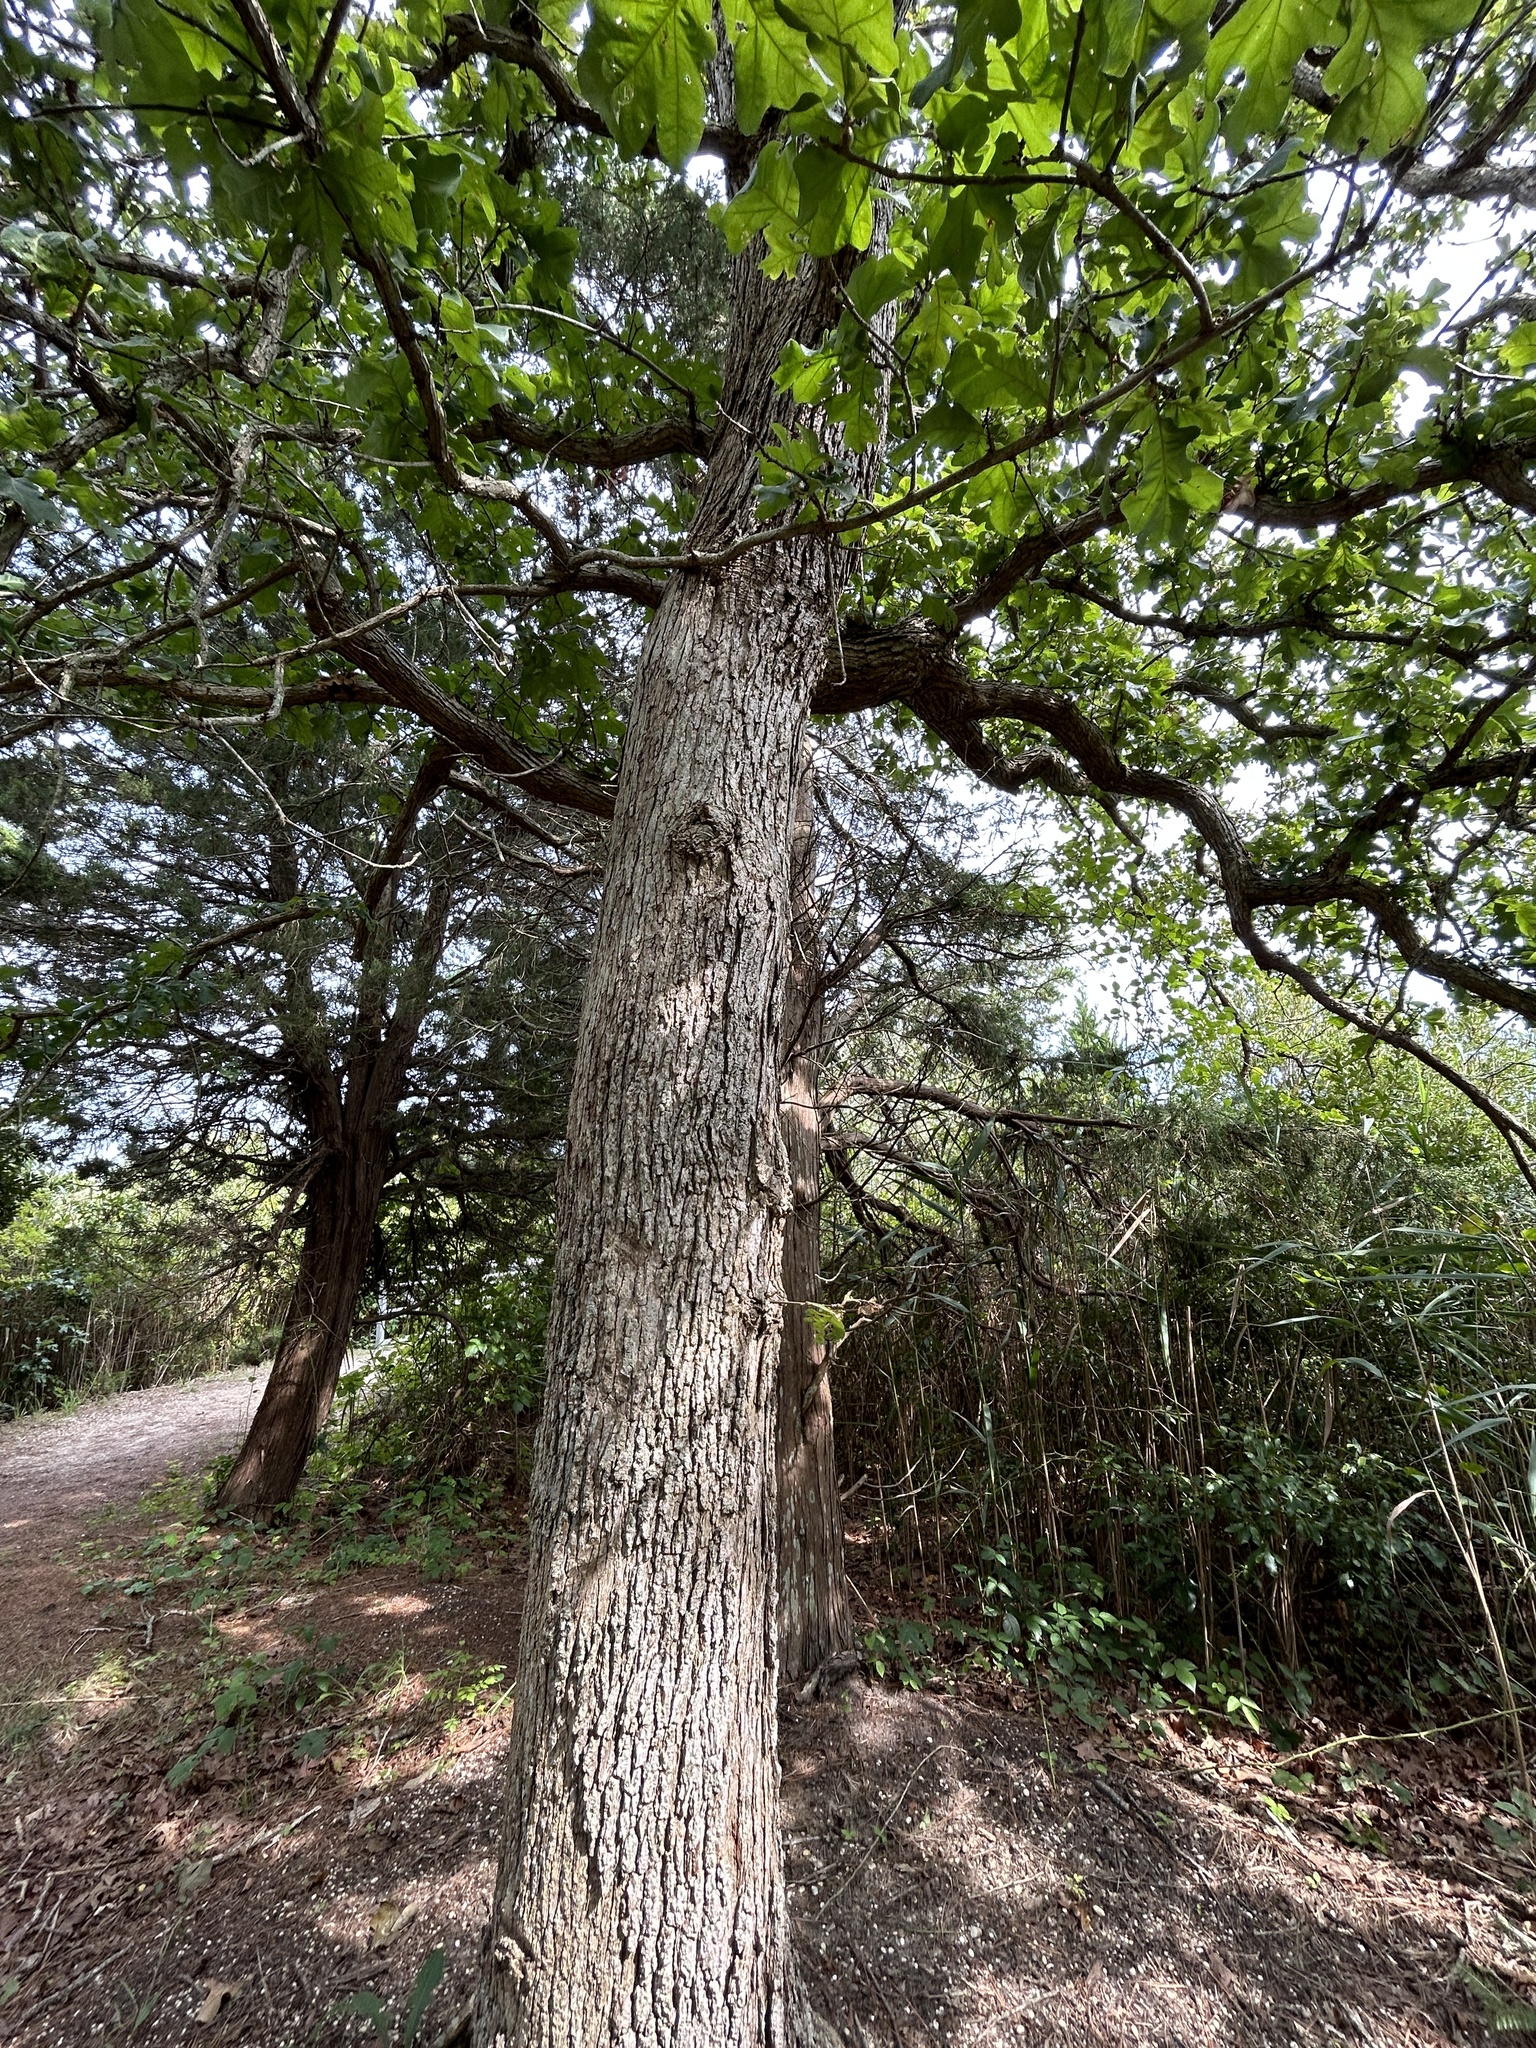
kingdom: Plantae
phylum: Tracheophyta
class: Magnoliopsida
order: Fagales
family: Fagaceae
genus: Quercus
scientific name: Quercus stellata
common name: Post oak
